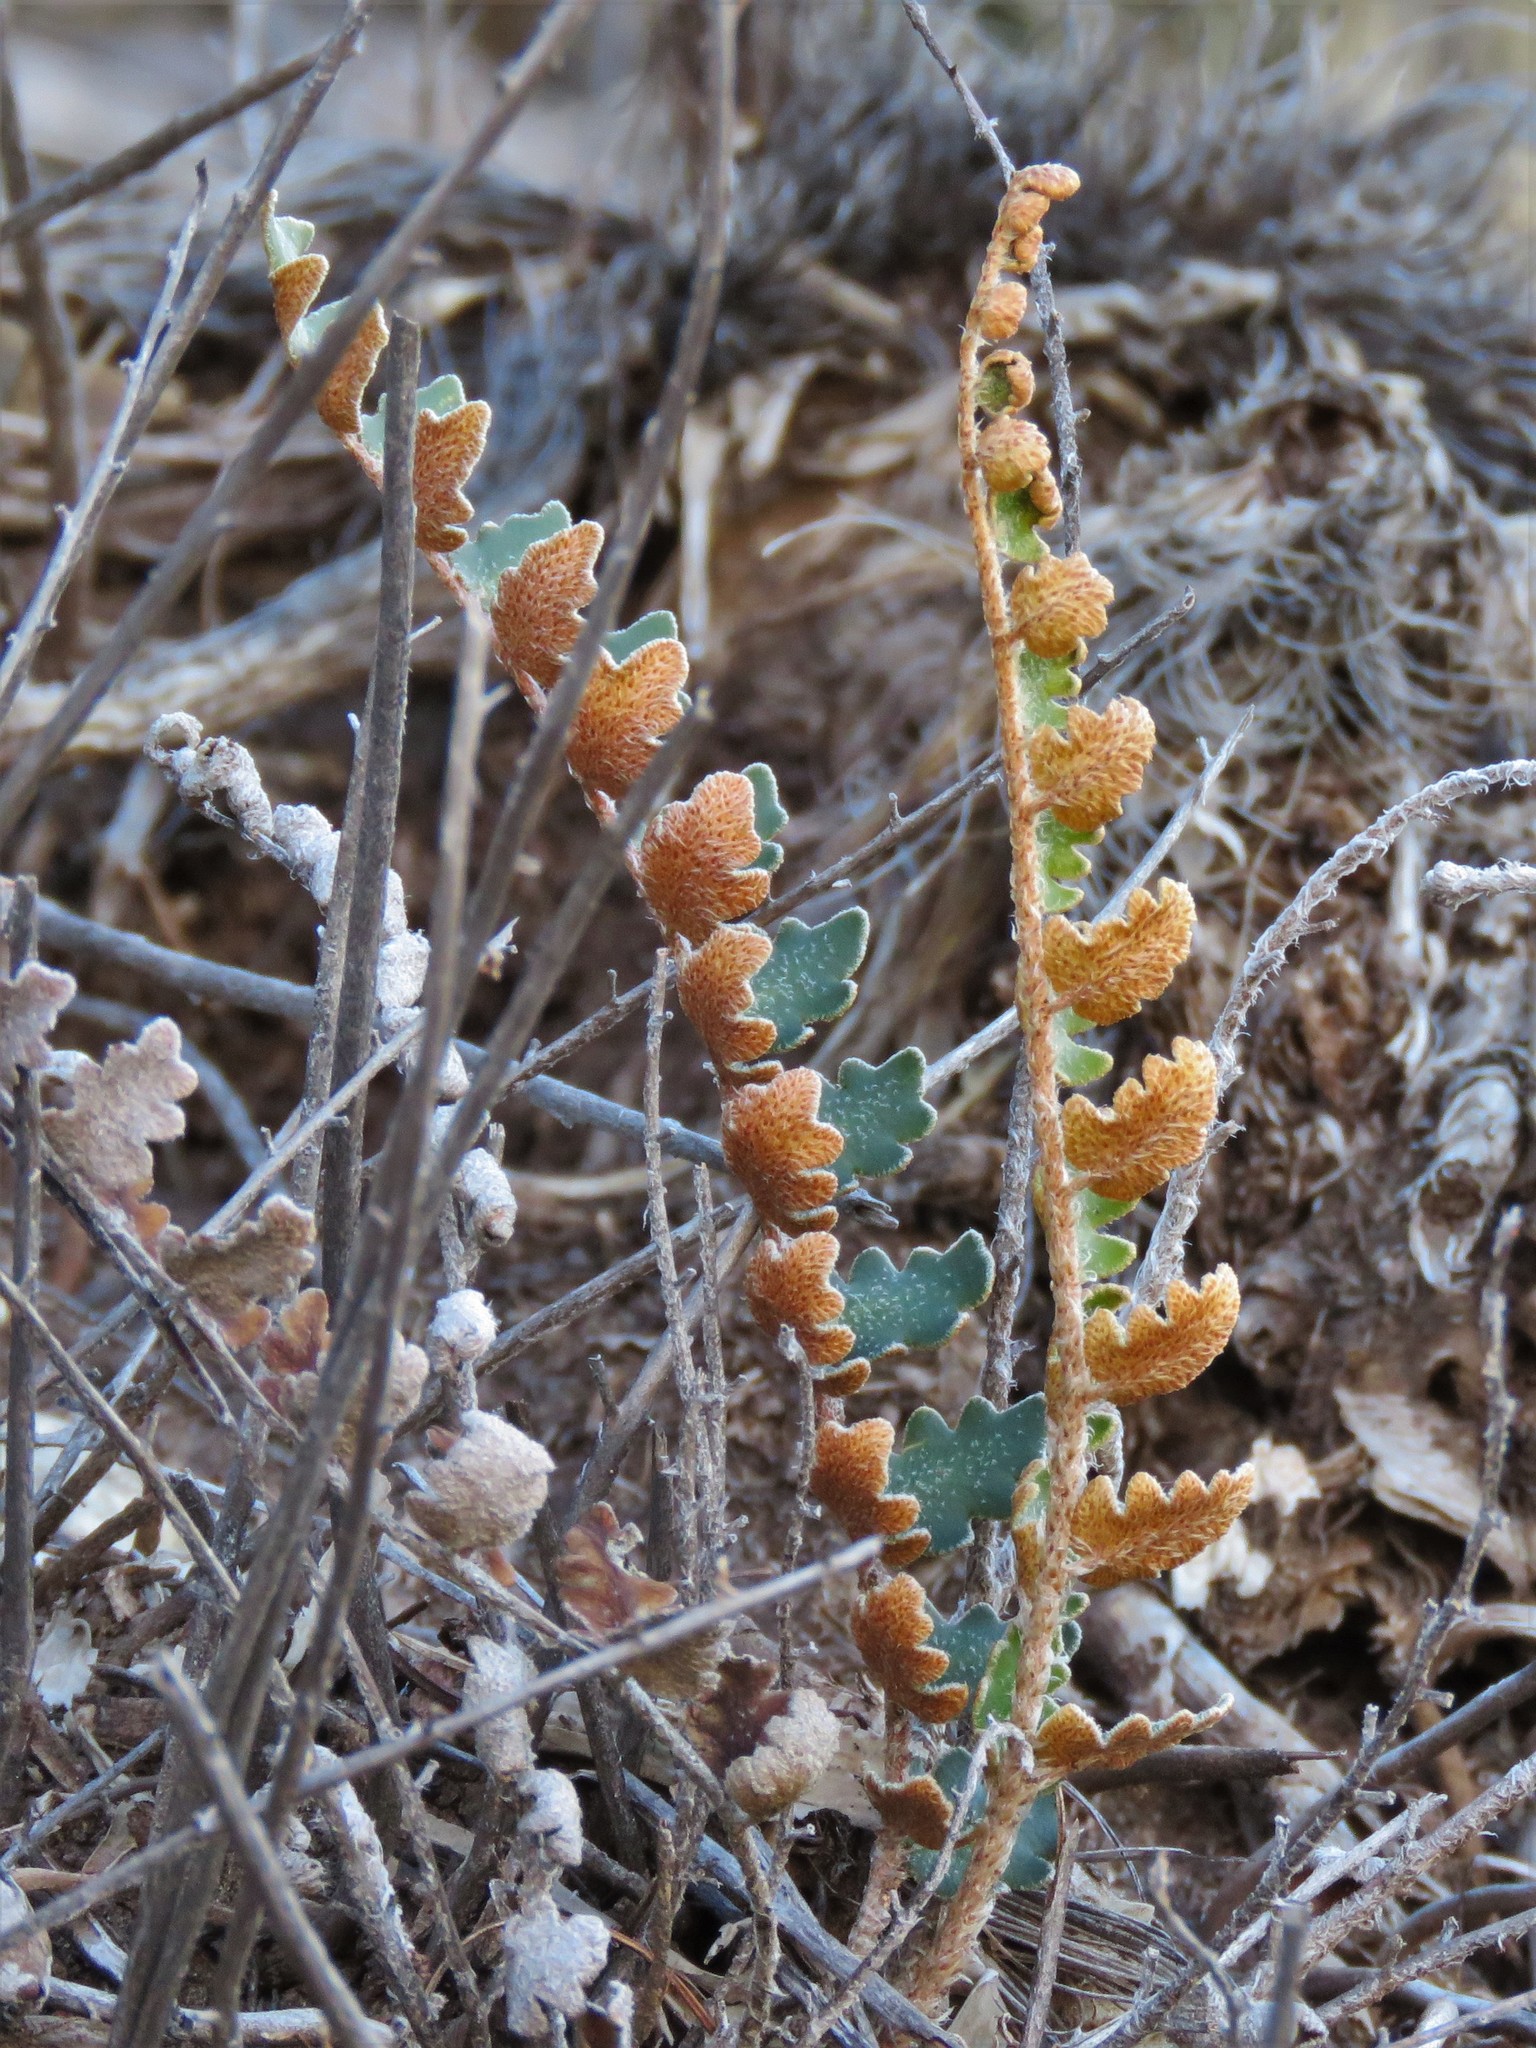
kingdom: Plantae
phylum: Tracheophyta
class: Polypodiopsida
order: Polypodiales
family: Pteridaceae
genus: Astrolepis
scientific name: Astrolepis sinuata
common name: Wavy scaly cloakfern
